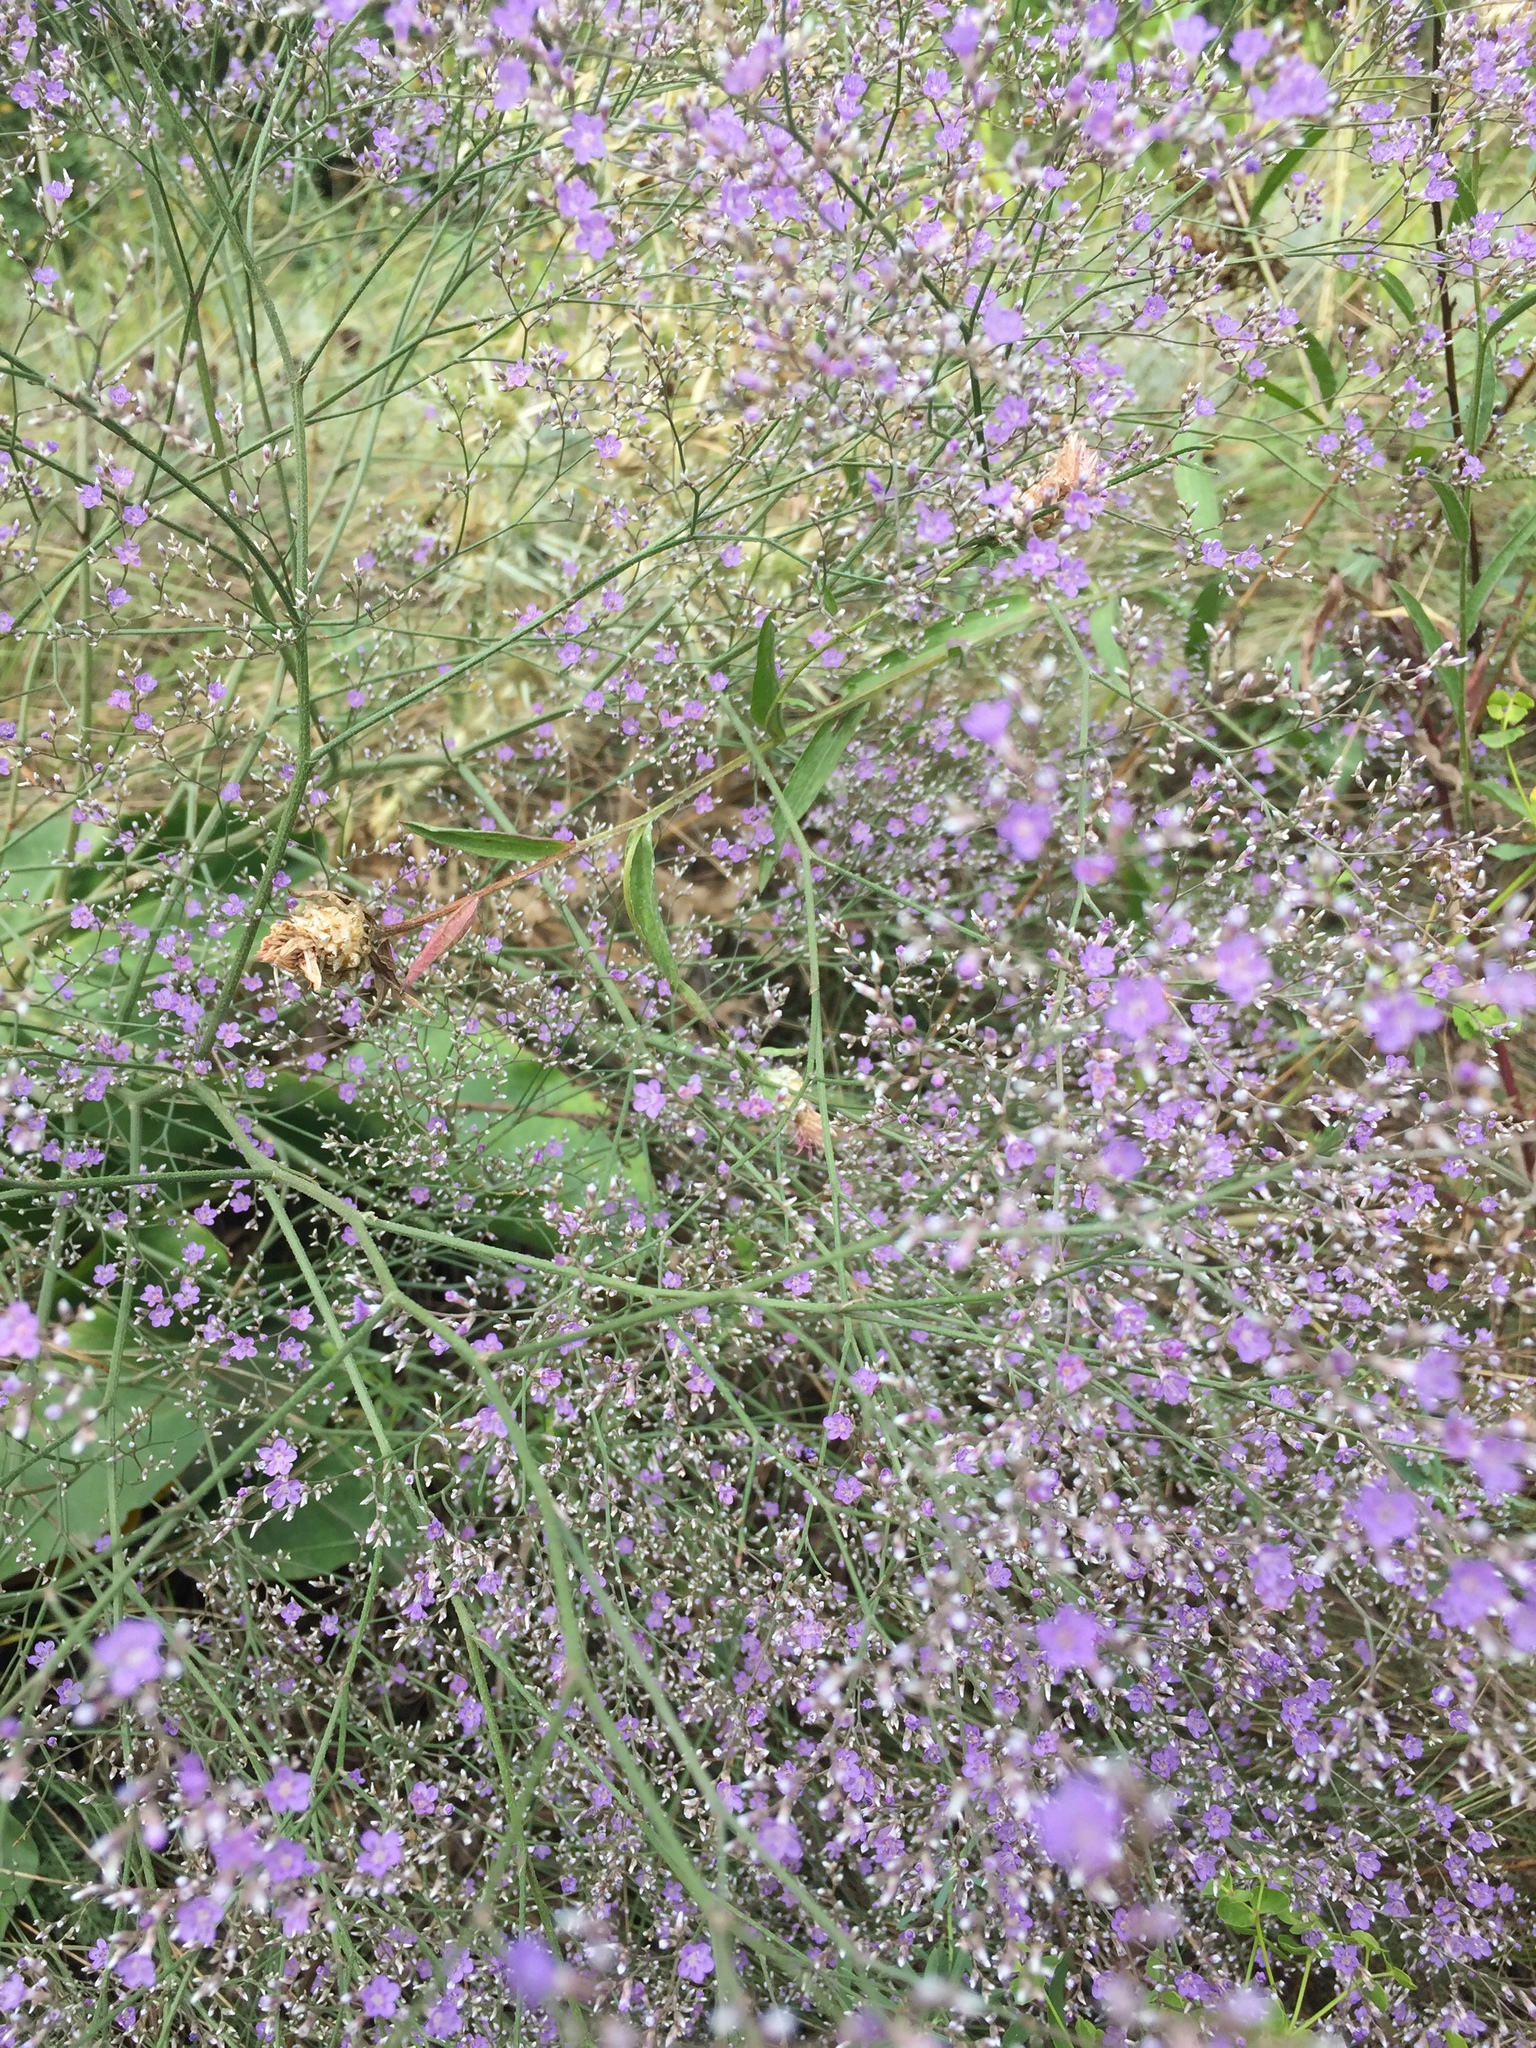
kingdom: Plantae
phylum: Tracheophyta
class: Magnoliopsida
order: Caryophyllales
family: Plumbaginaceae
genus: Limonium
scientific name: Limonium platyphyllum
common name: Florist's sea lavender
